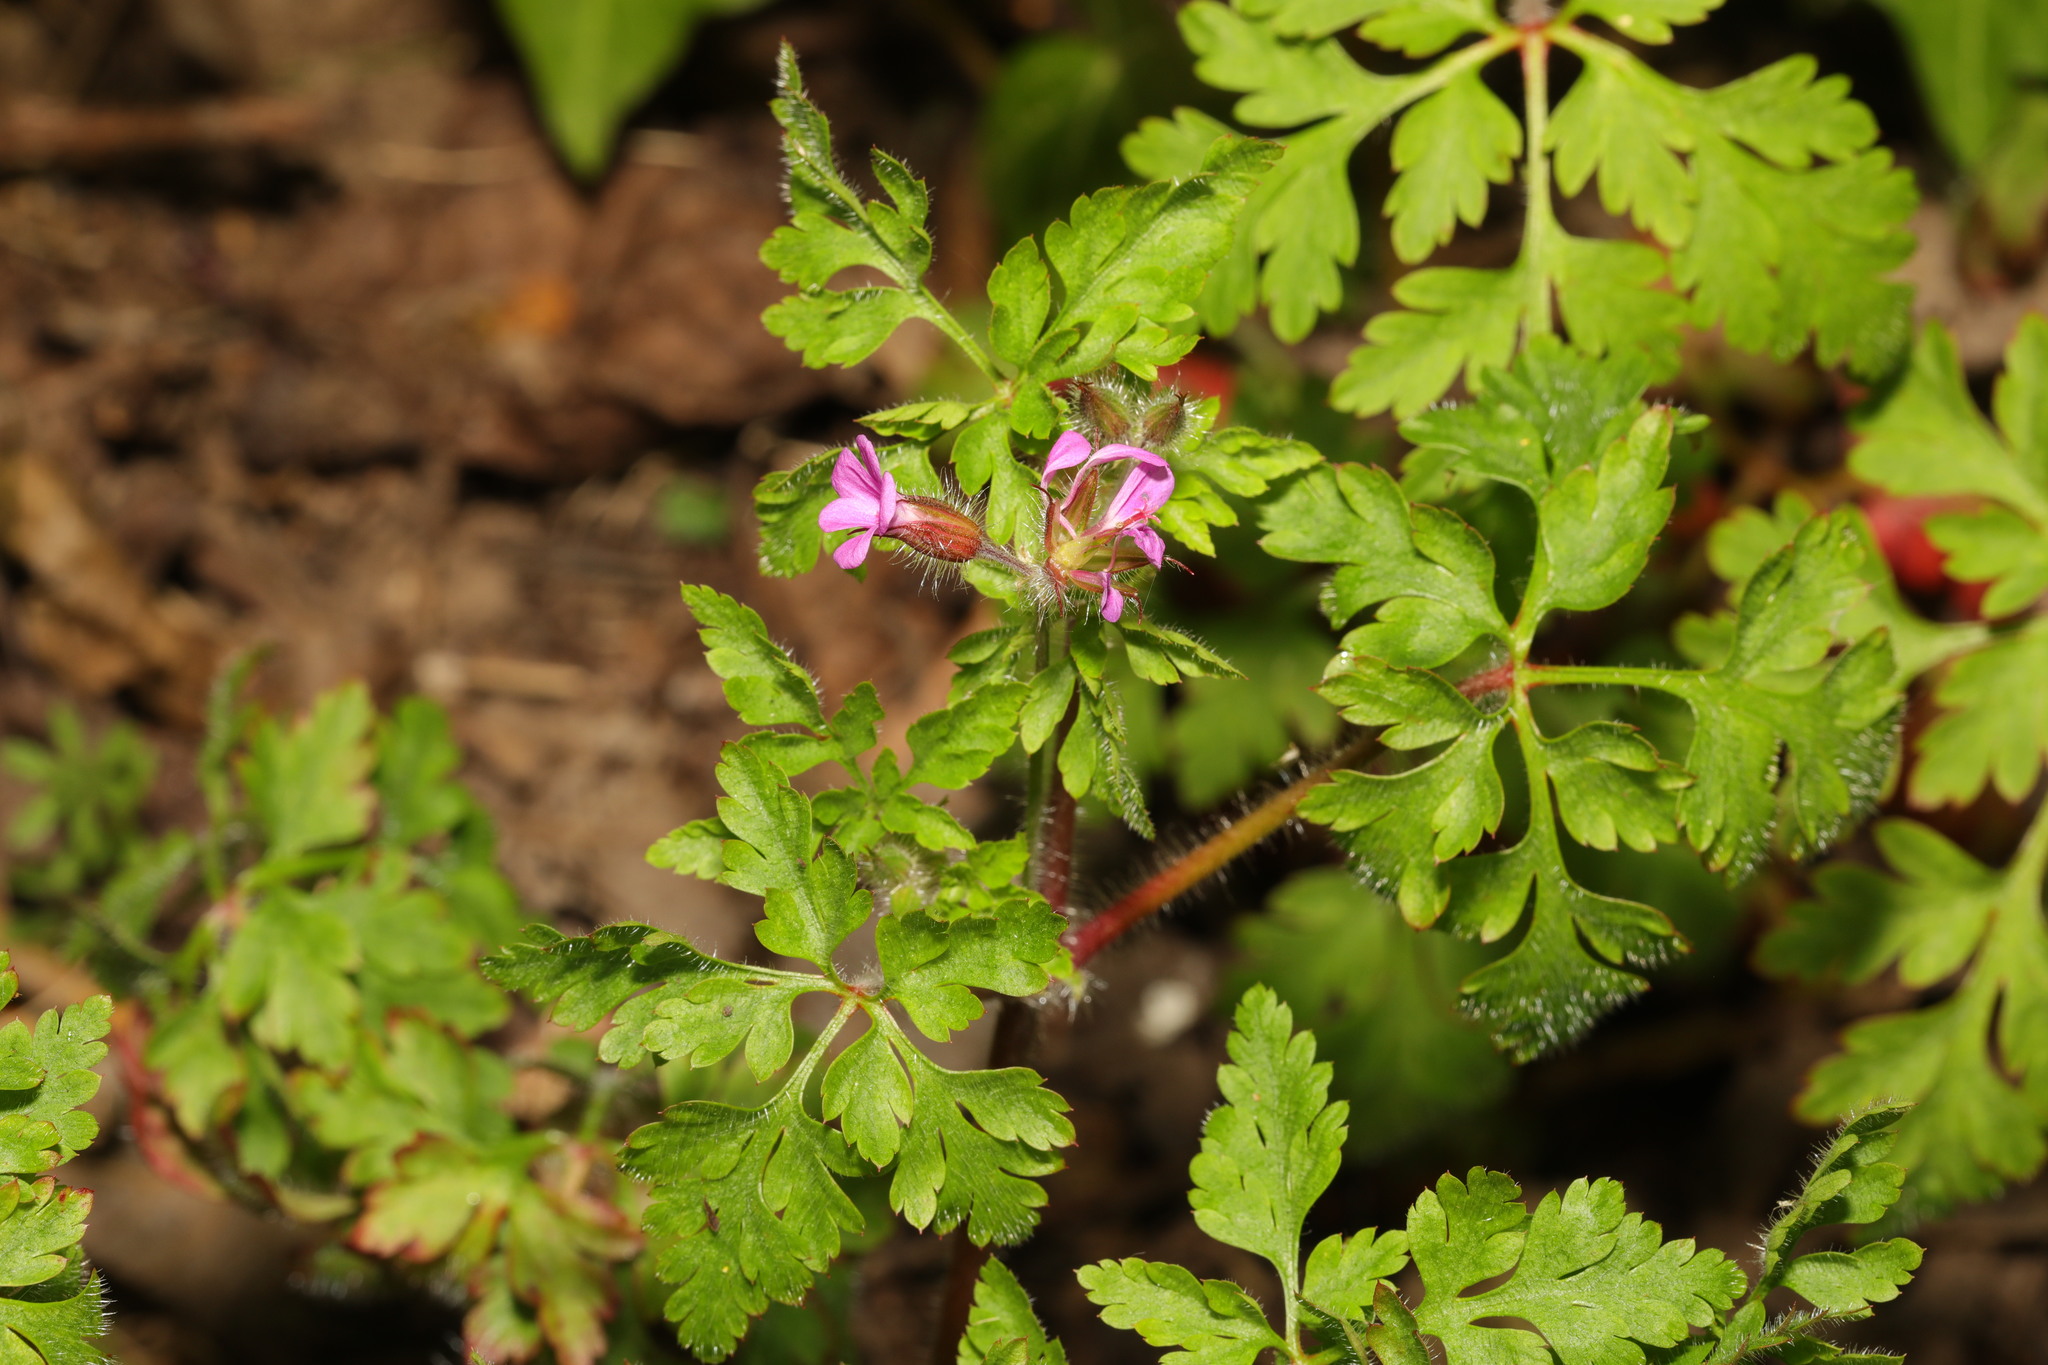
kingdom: Plantae
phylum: Tracheophyta
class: Magnoliopsida
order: Geraniales
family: Geraniaceae
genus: Geranium
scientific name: Geranium robertianum
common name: Herb-robert
